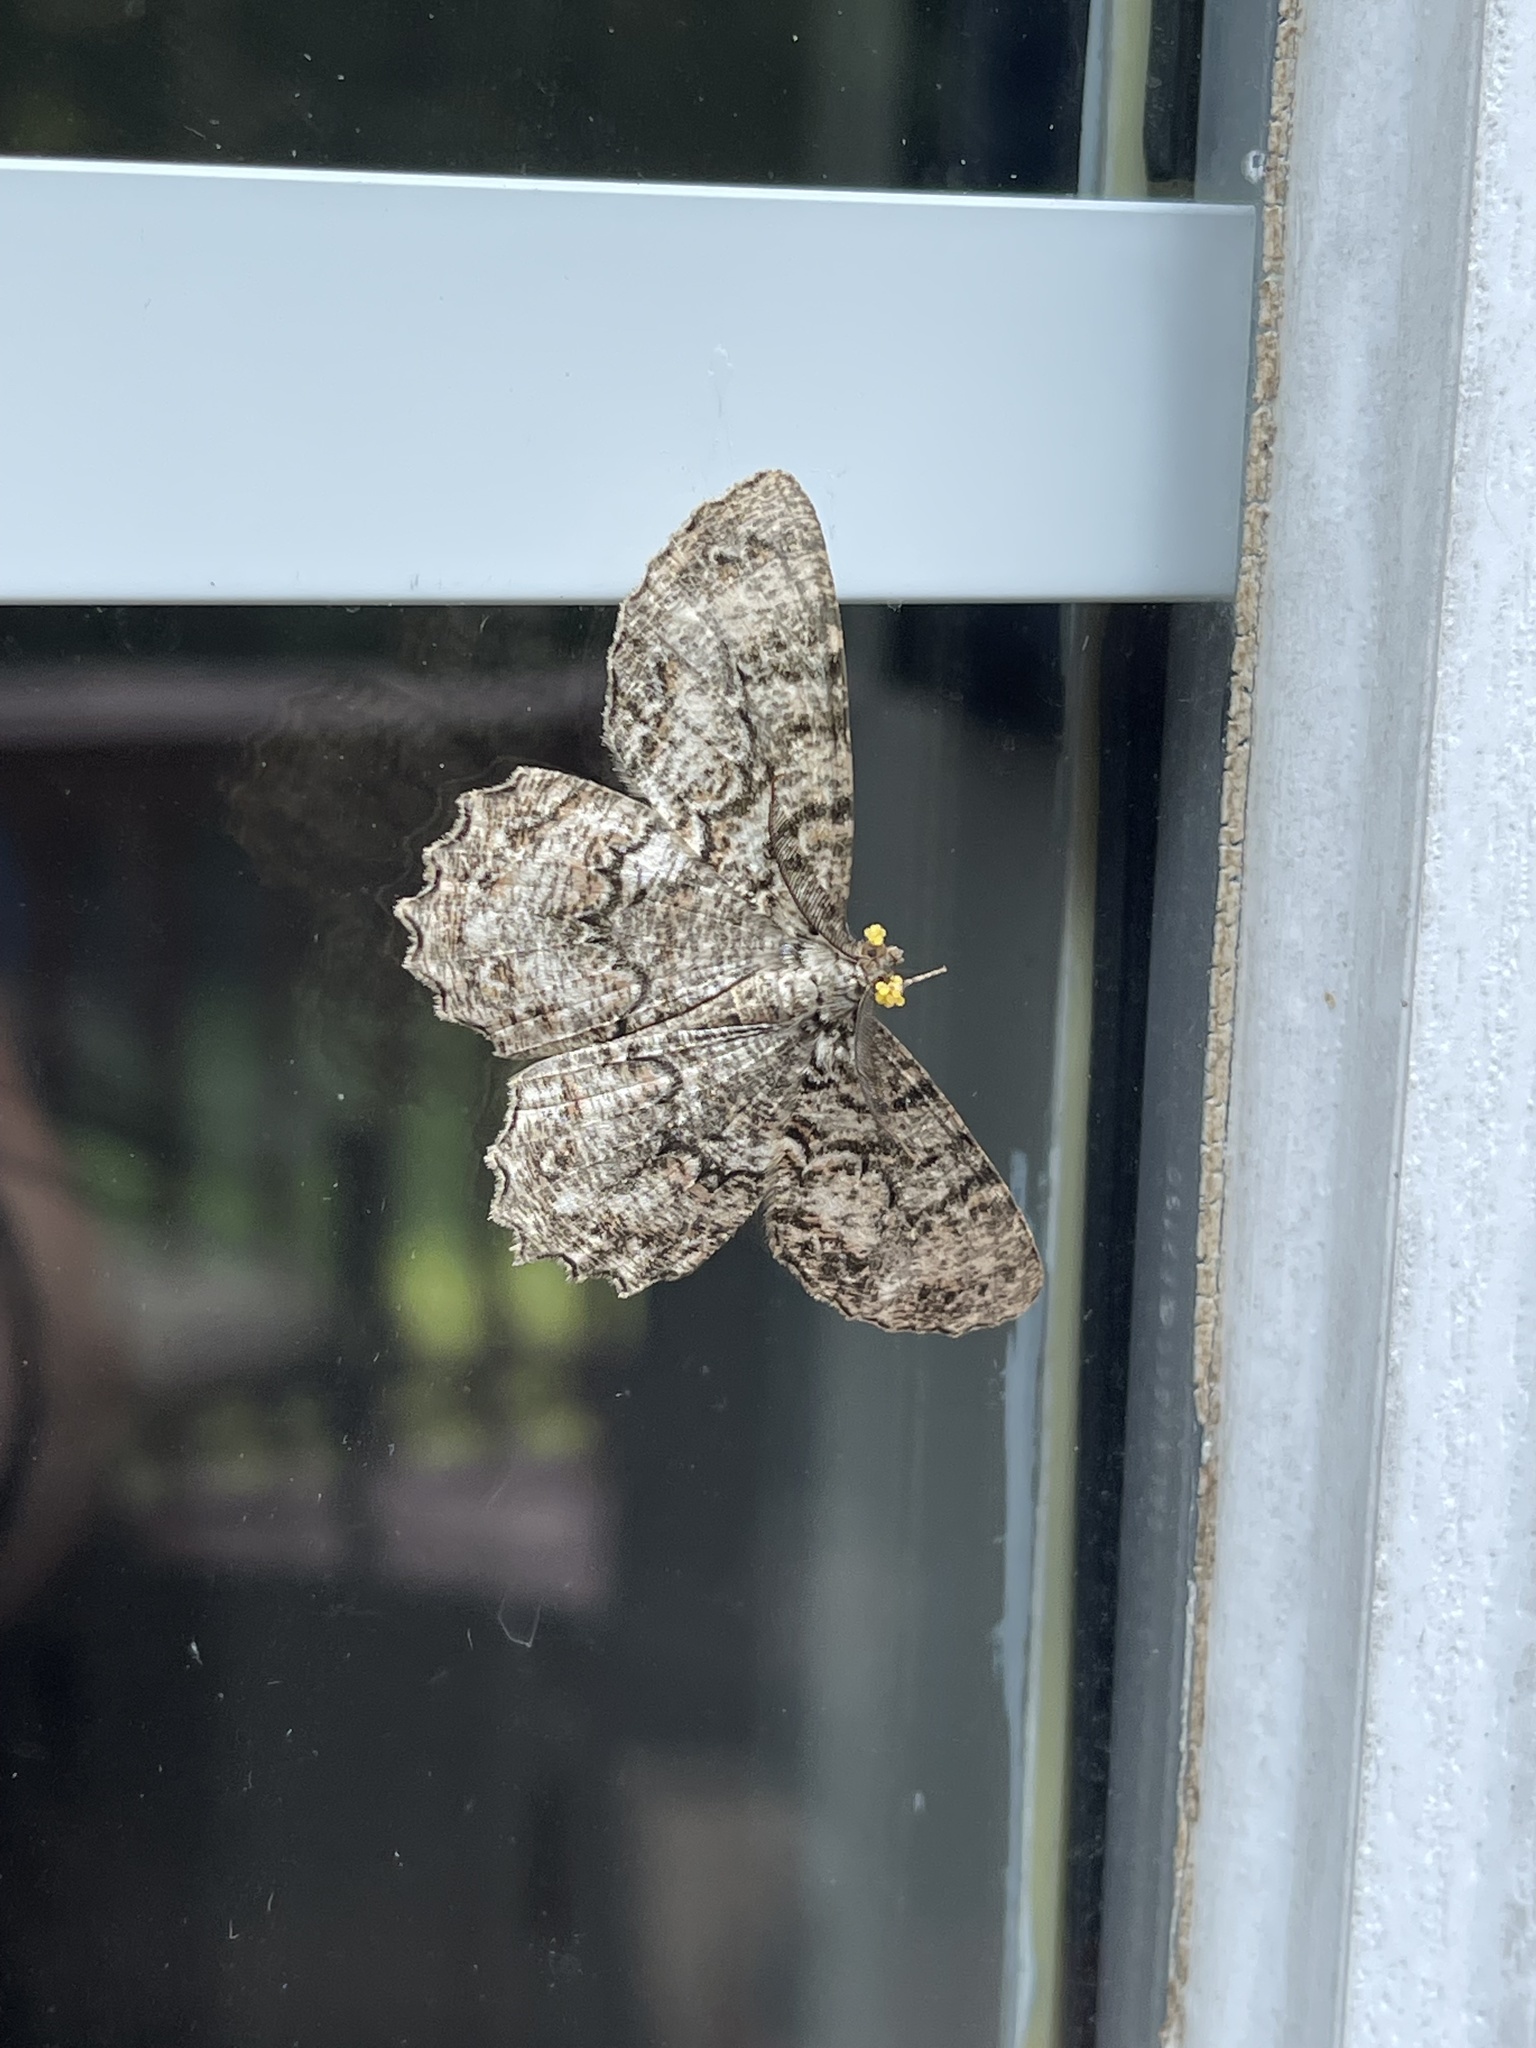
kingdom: Animalia
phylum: Arthropoda
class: Insecta
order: Lepidoptera
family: Geometridae
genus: Epimecis
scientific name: Epimecis hortaria
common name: Tulip-tree beauty
